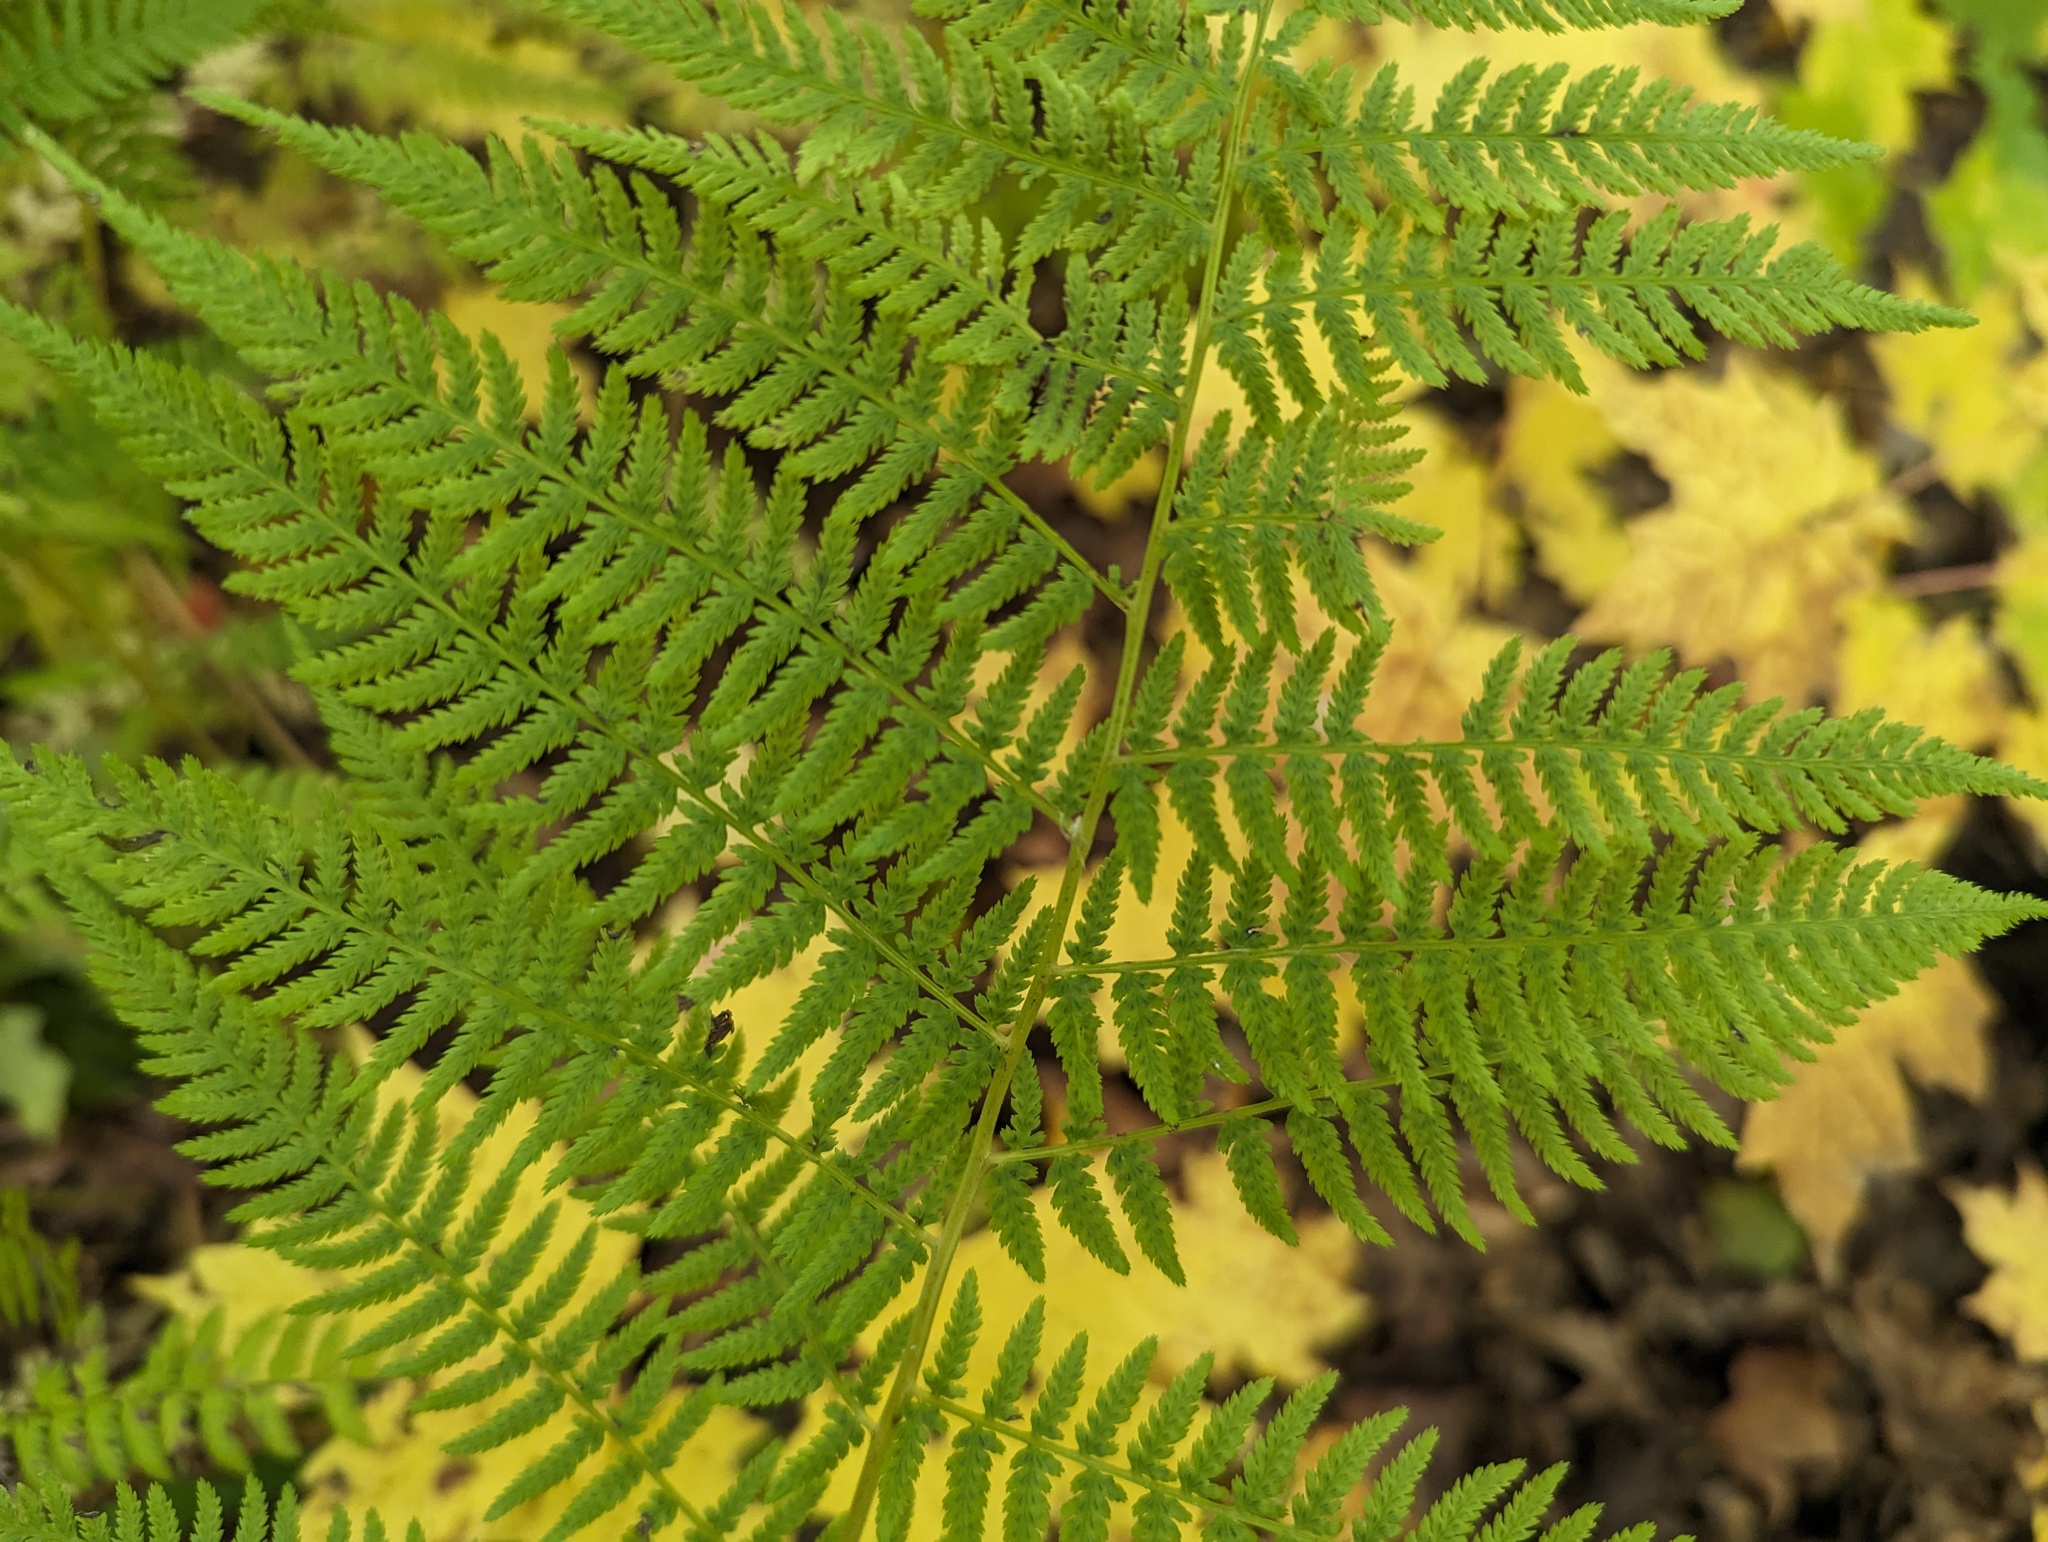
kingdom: Plantae
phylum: Tracheophyta
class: Polypodiopsida
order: Polypodiales
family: Athyriaceae
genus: Athyrium
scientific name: Athyrium angustum
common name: Northern lady fern
